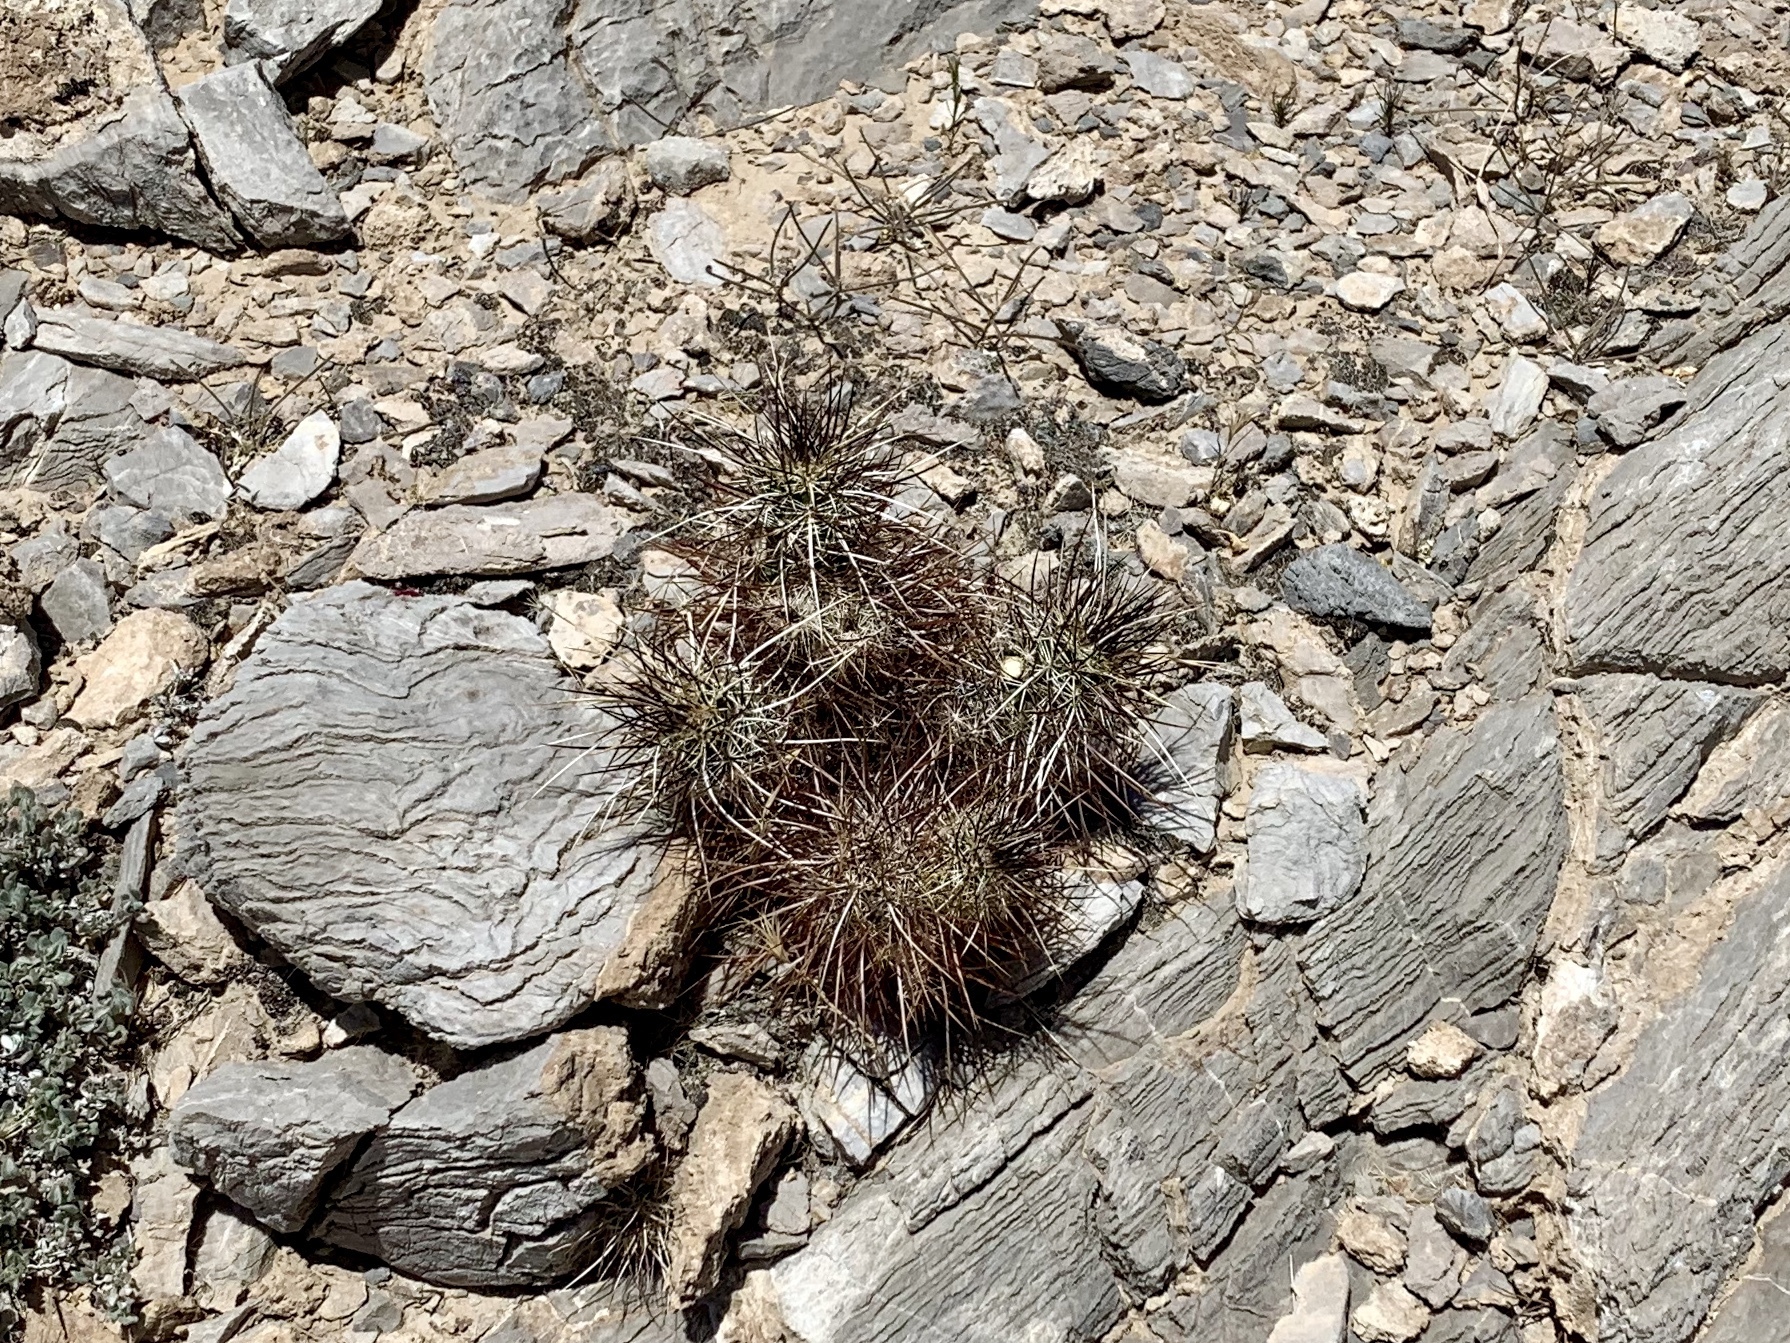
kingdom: Plantae
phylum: Tracheophyta
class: Magnoliopsida
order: Caryophyllales
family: Cactaceae
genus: Echinocereus
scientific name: Echinocereus engelmannii
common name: Engelmann's hedgehog cactus
